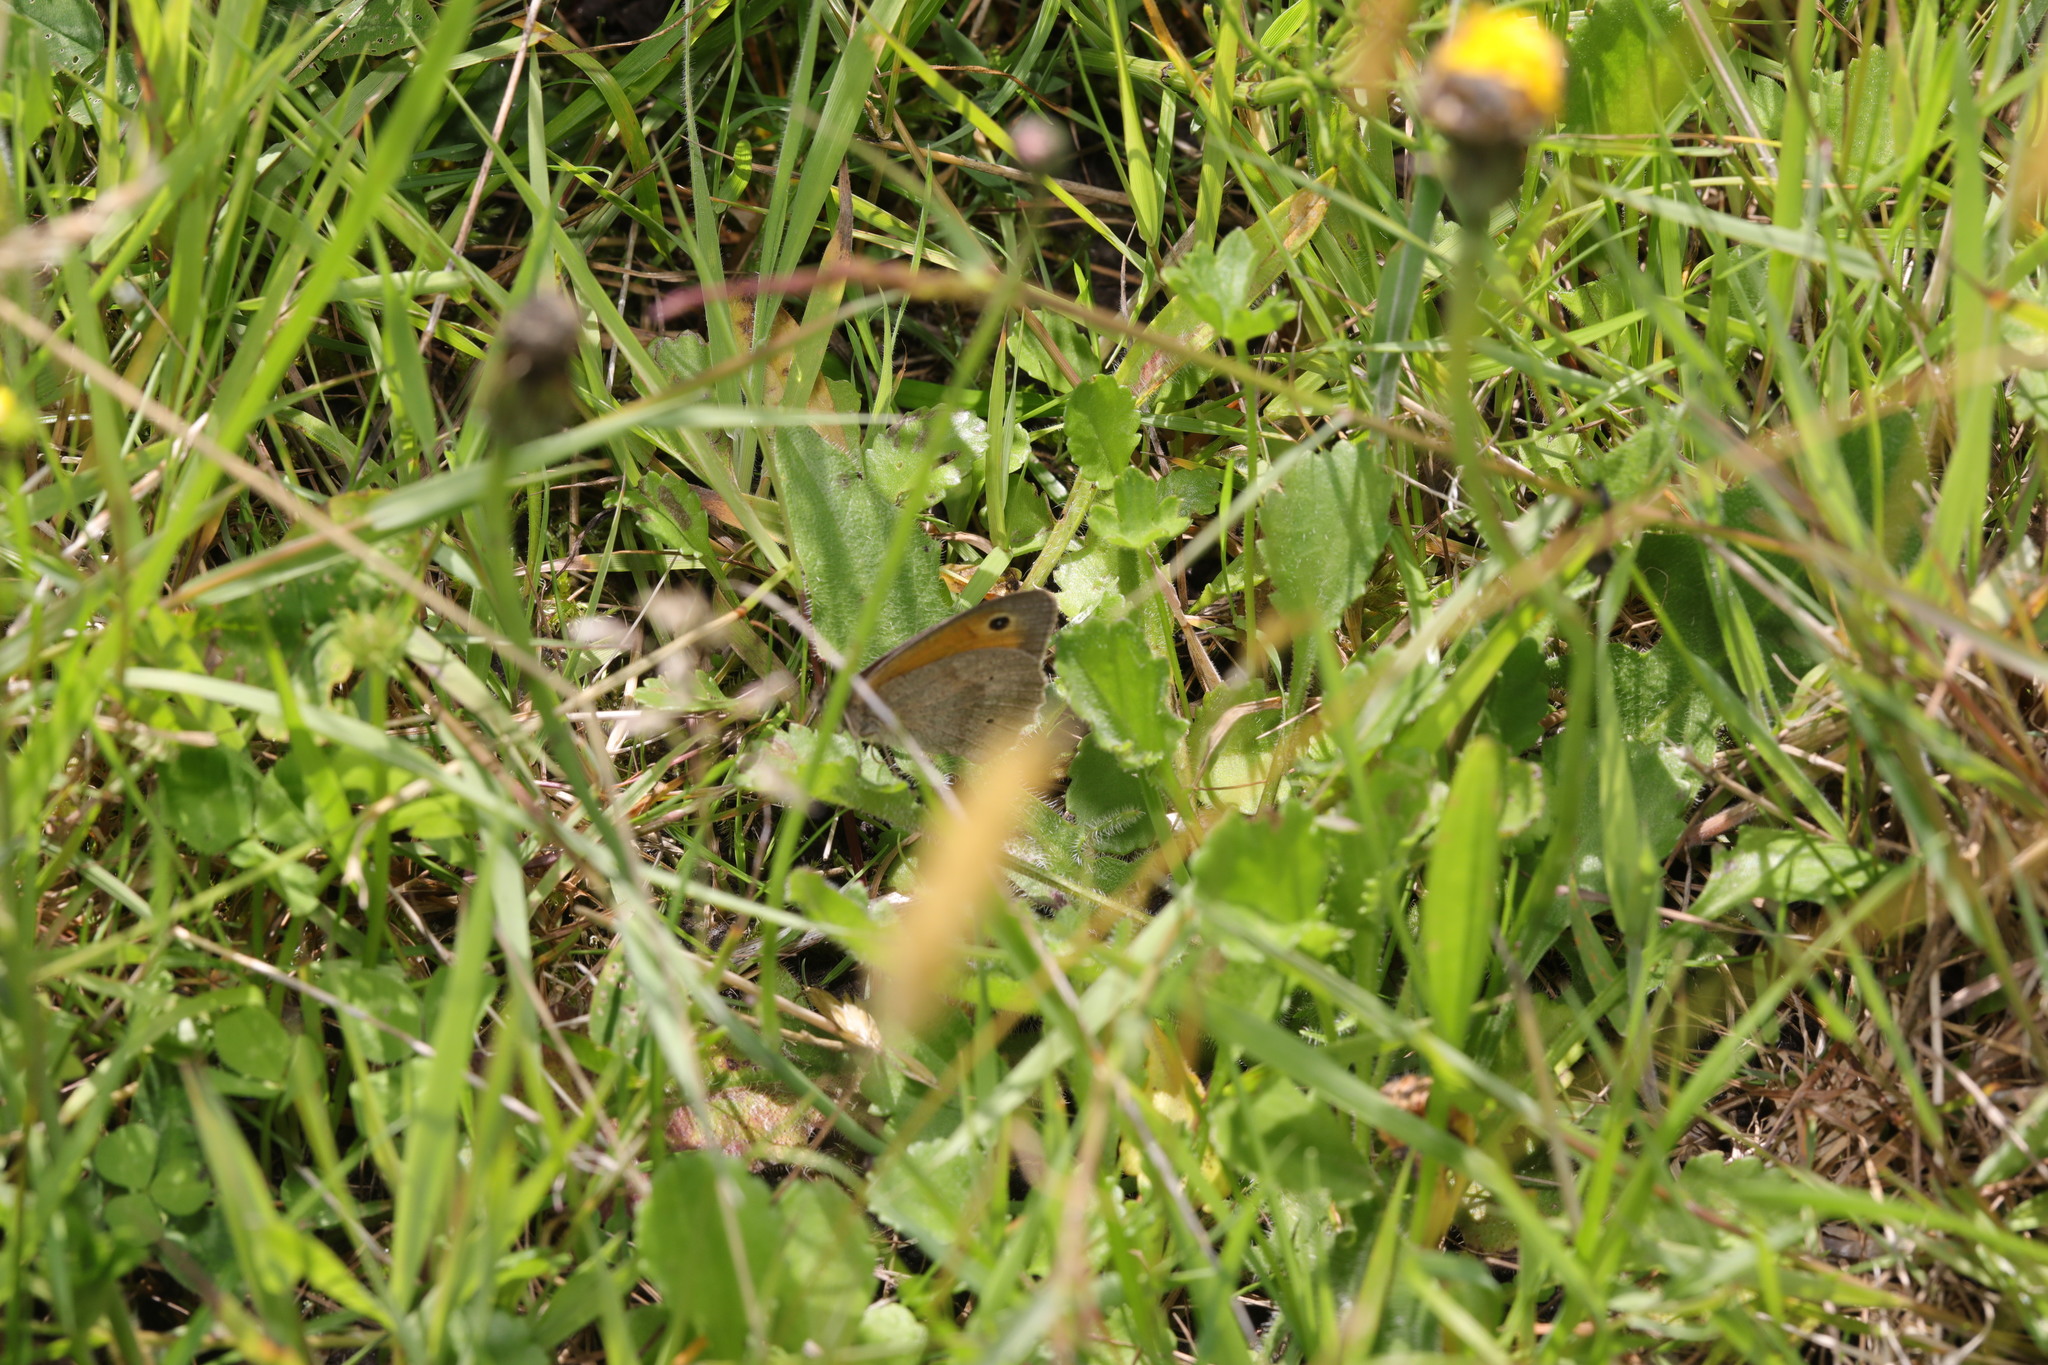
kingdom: Animalia
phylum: Arthropoda
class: Insecta
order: Lepidoptera
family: Nymphalidae
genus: Maniola
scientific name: Maniola jurtina
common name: Meadow brown
